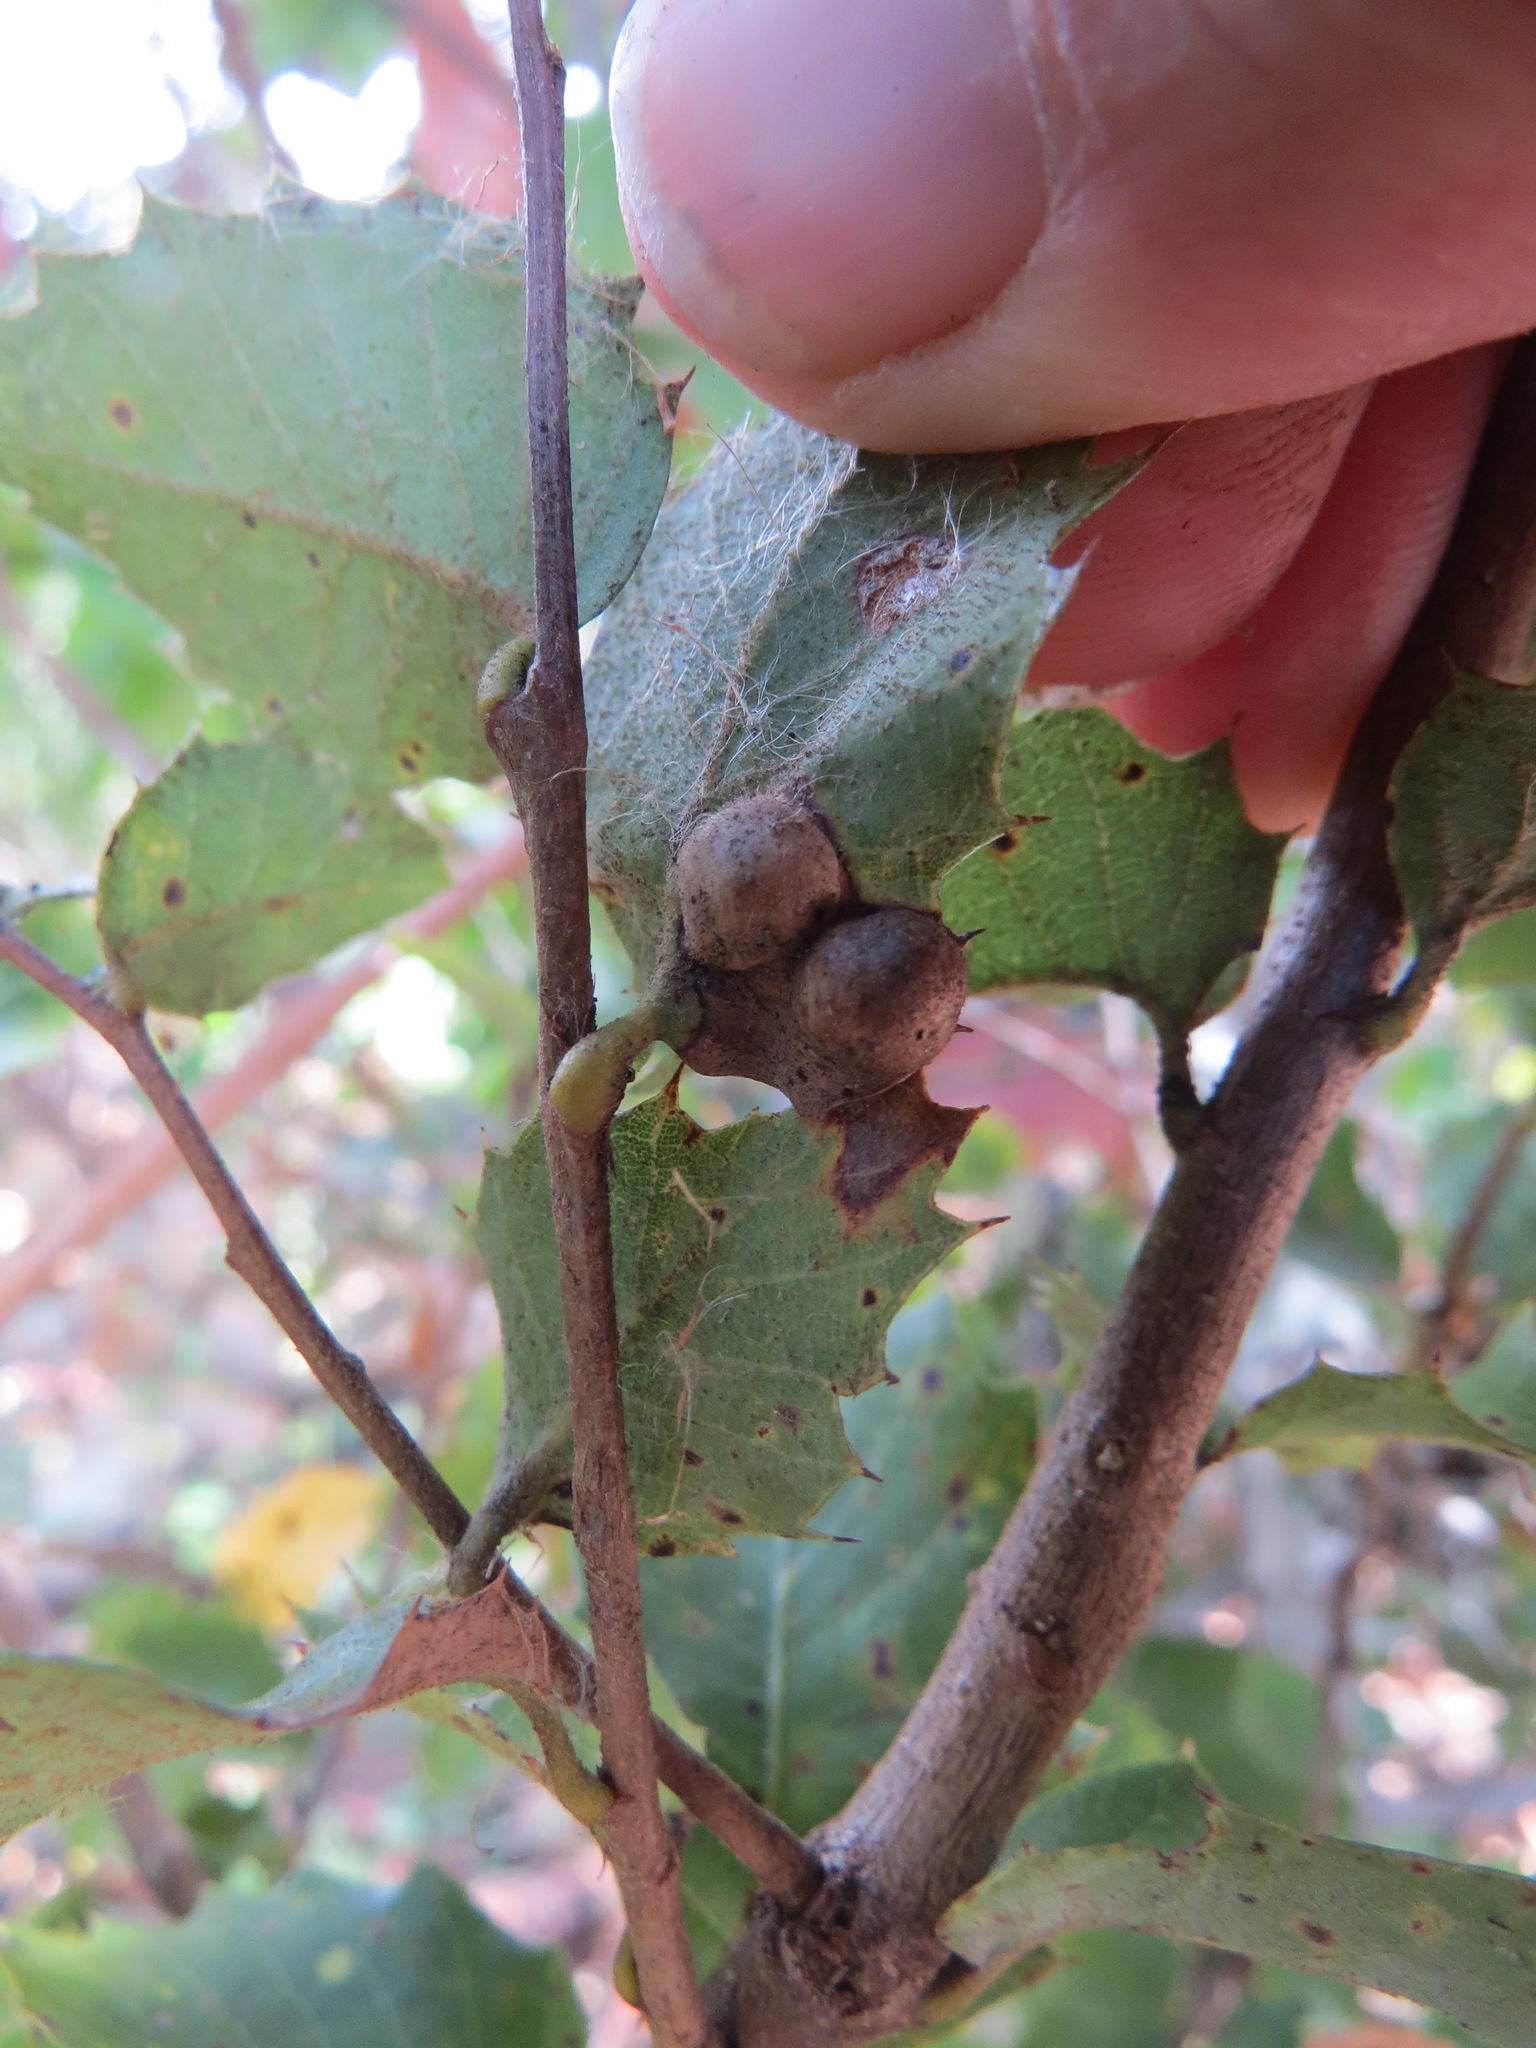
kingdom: Animalia
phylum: Arthropoda
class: Insecta
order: Hymenoptera
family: Cynipidae
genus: Heteroecus
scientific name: Heteroecus
